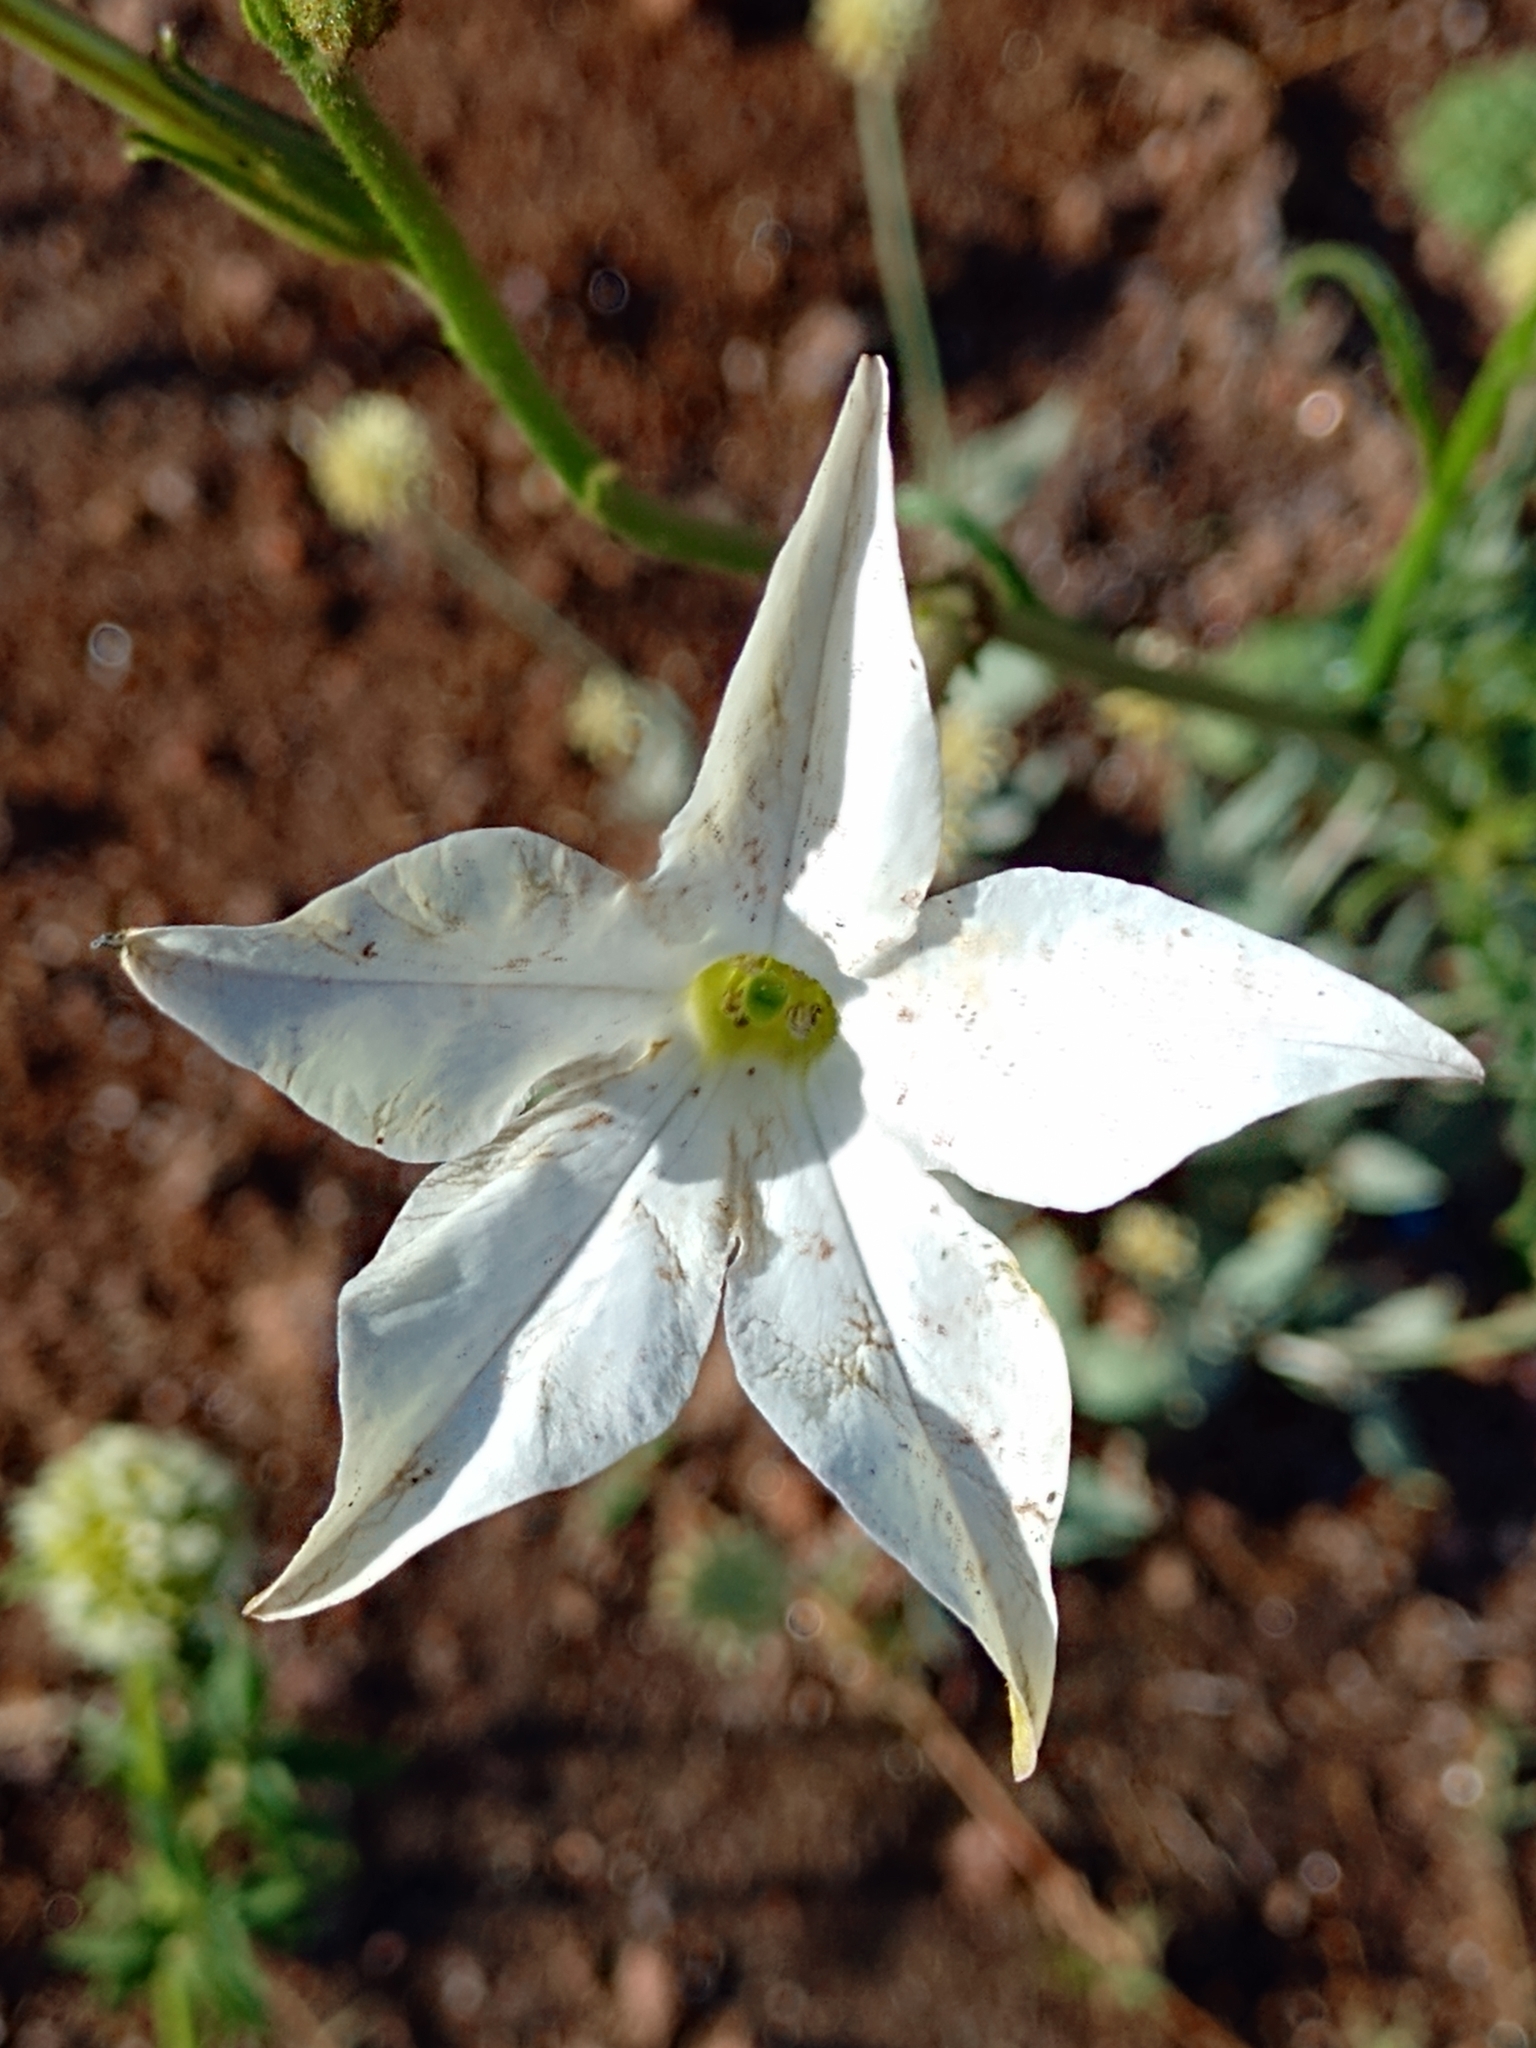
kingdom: Plantae
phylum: Tracheophyta
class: Magnoliopsida
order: Solanales
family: Solanaceae
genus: Nicotiana
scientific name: Nicotiana longiflora
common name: Long-flowered tobacco
